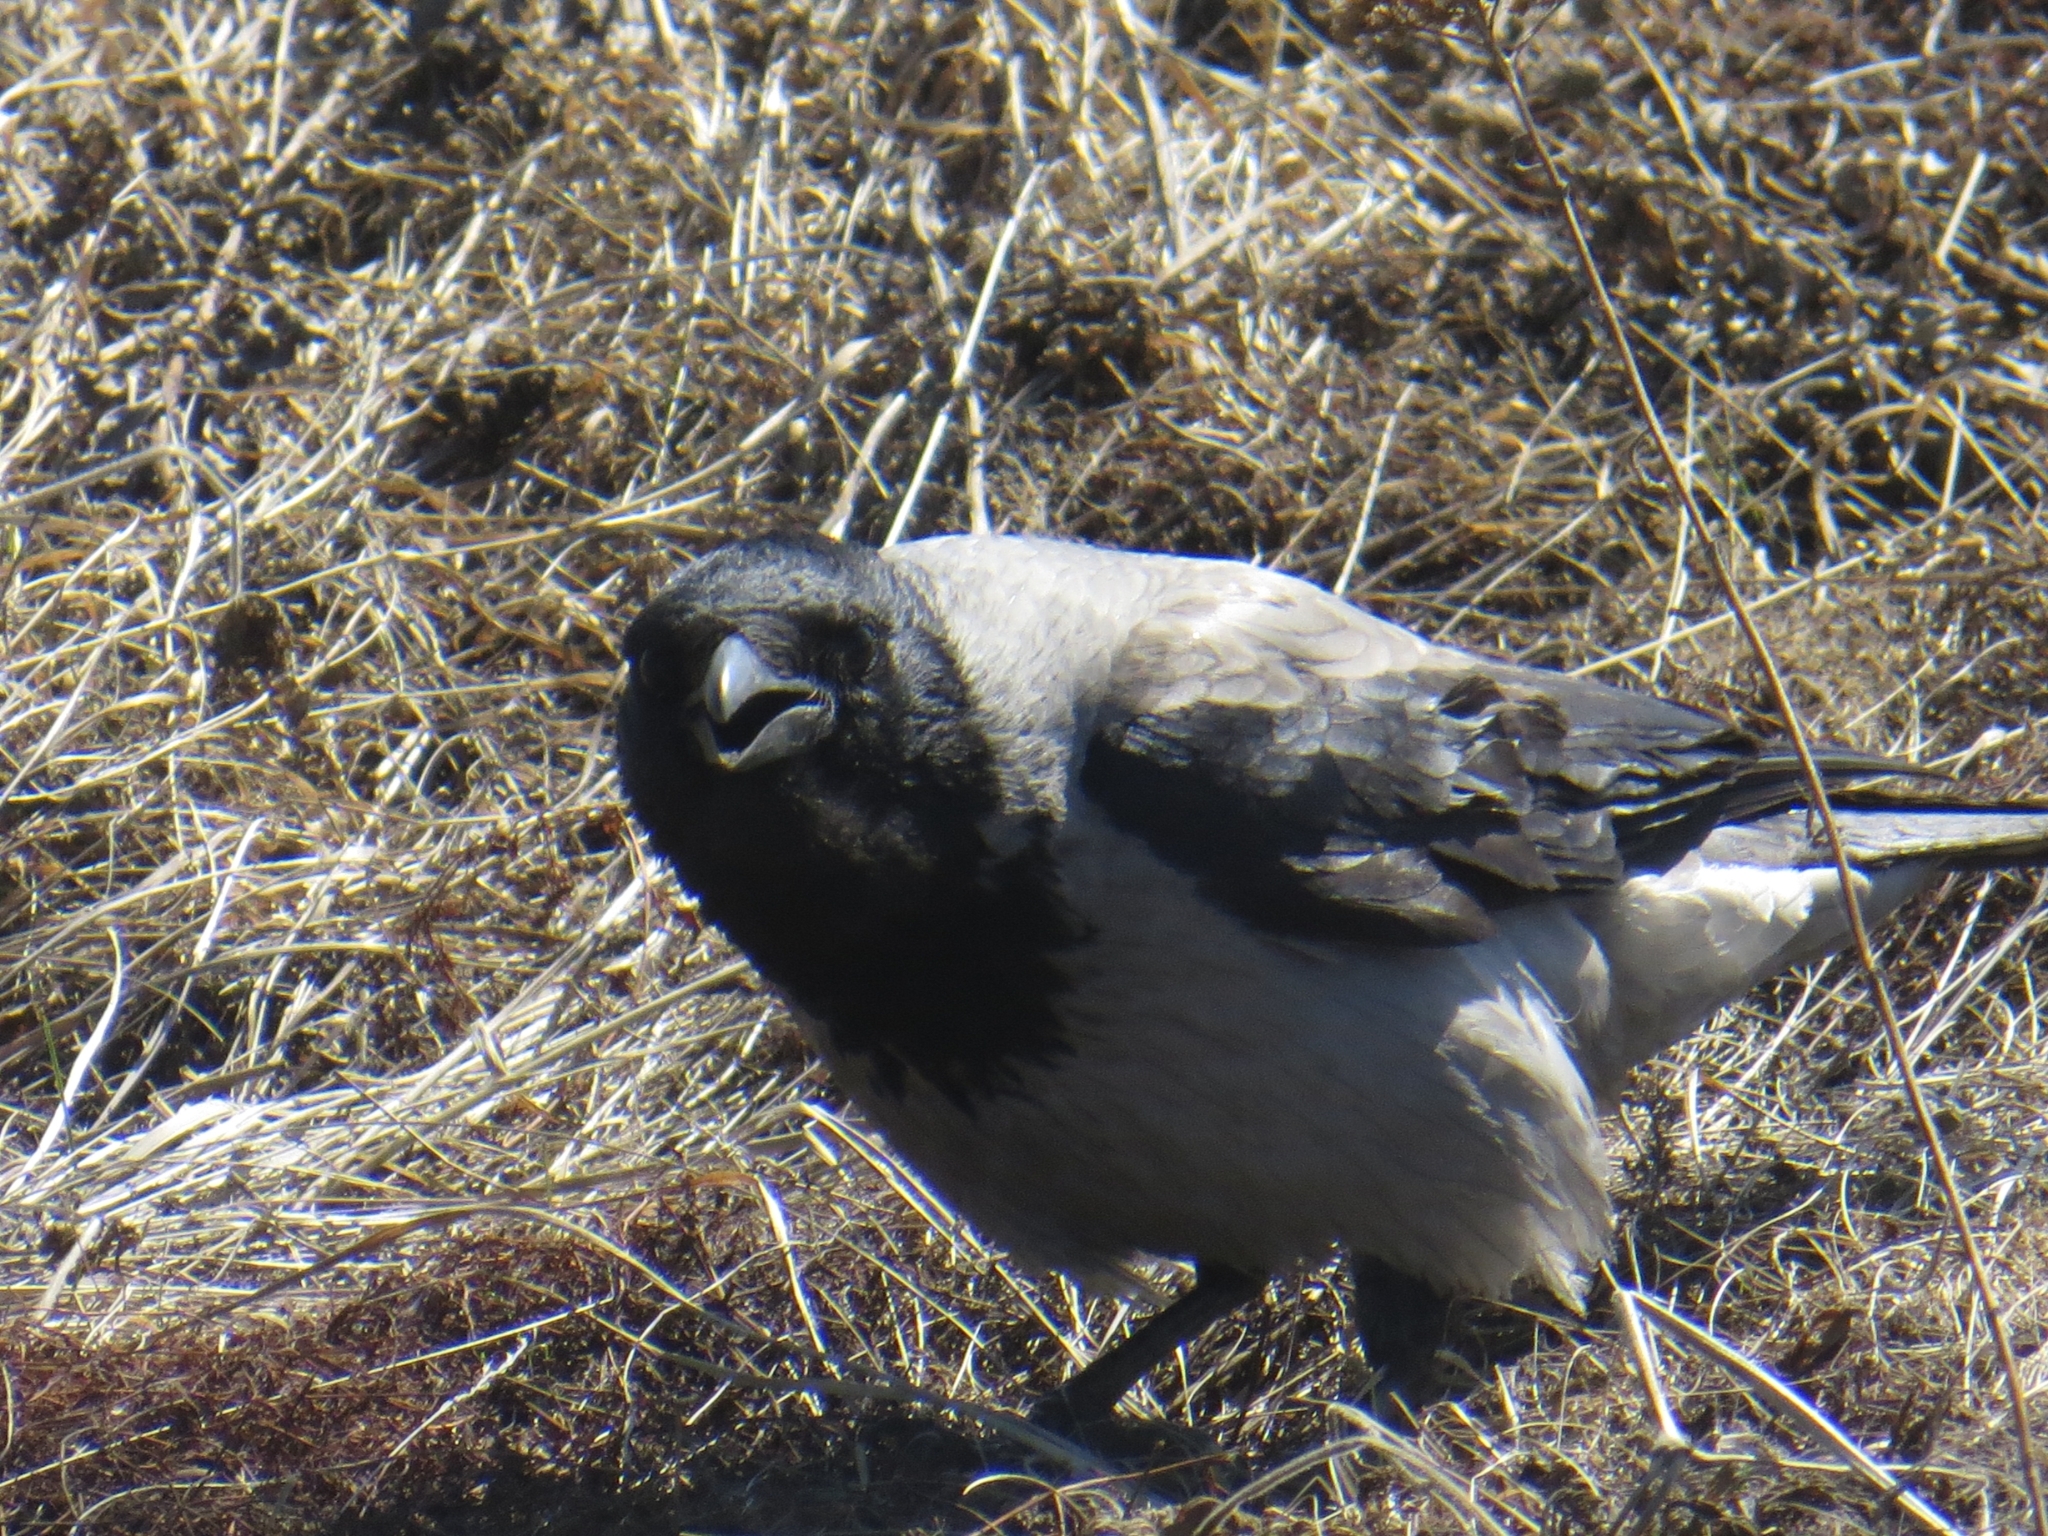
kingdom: Animalia
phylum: Chordata
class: Aves
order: Passeriformes
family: Corvidae
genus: Corvus
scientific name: Corvus cornix
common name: Hooded crow
